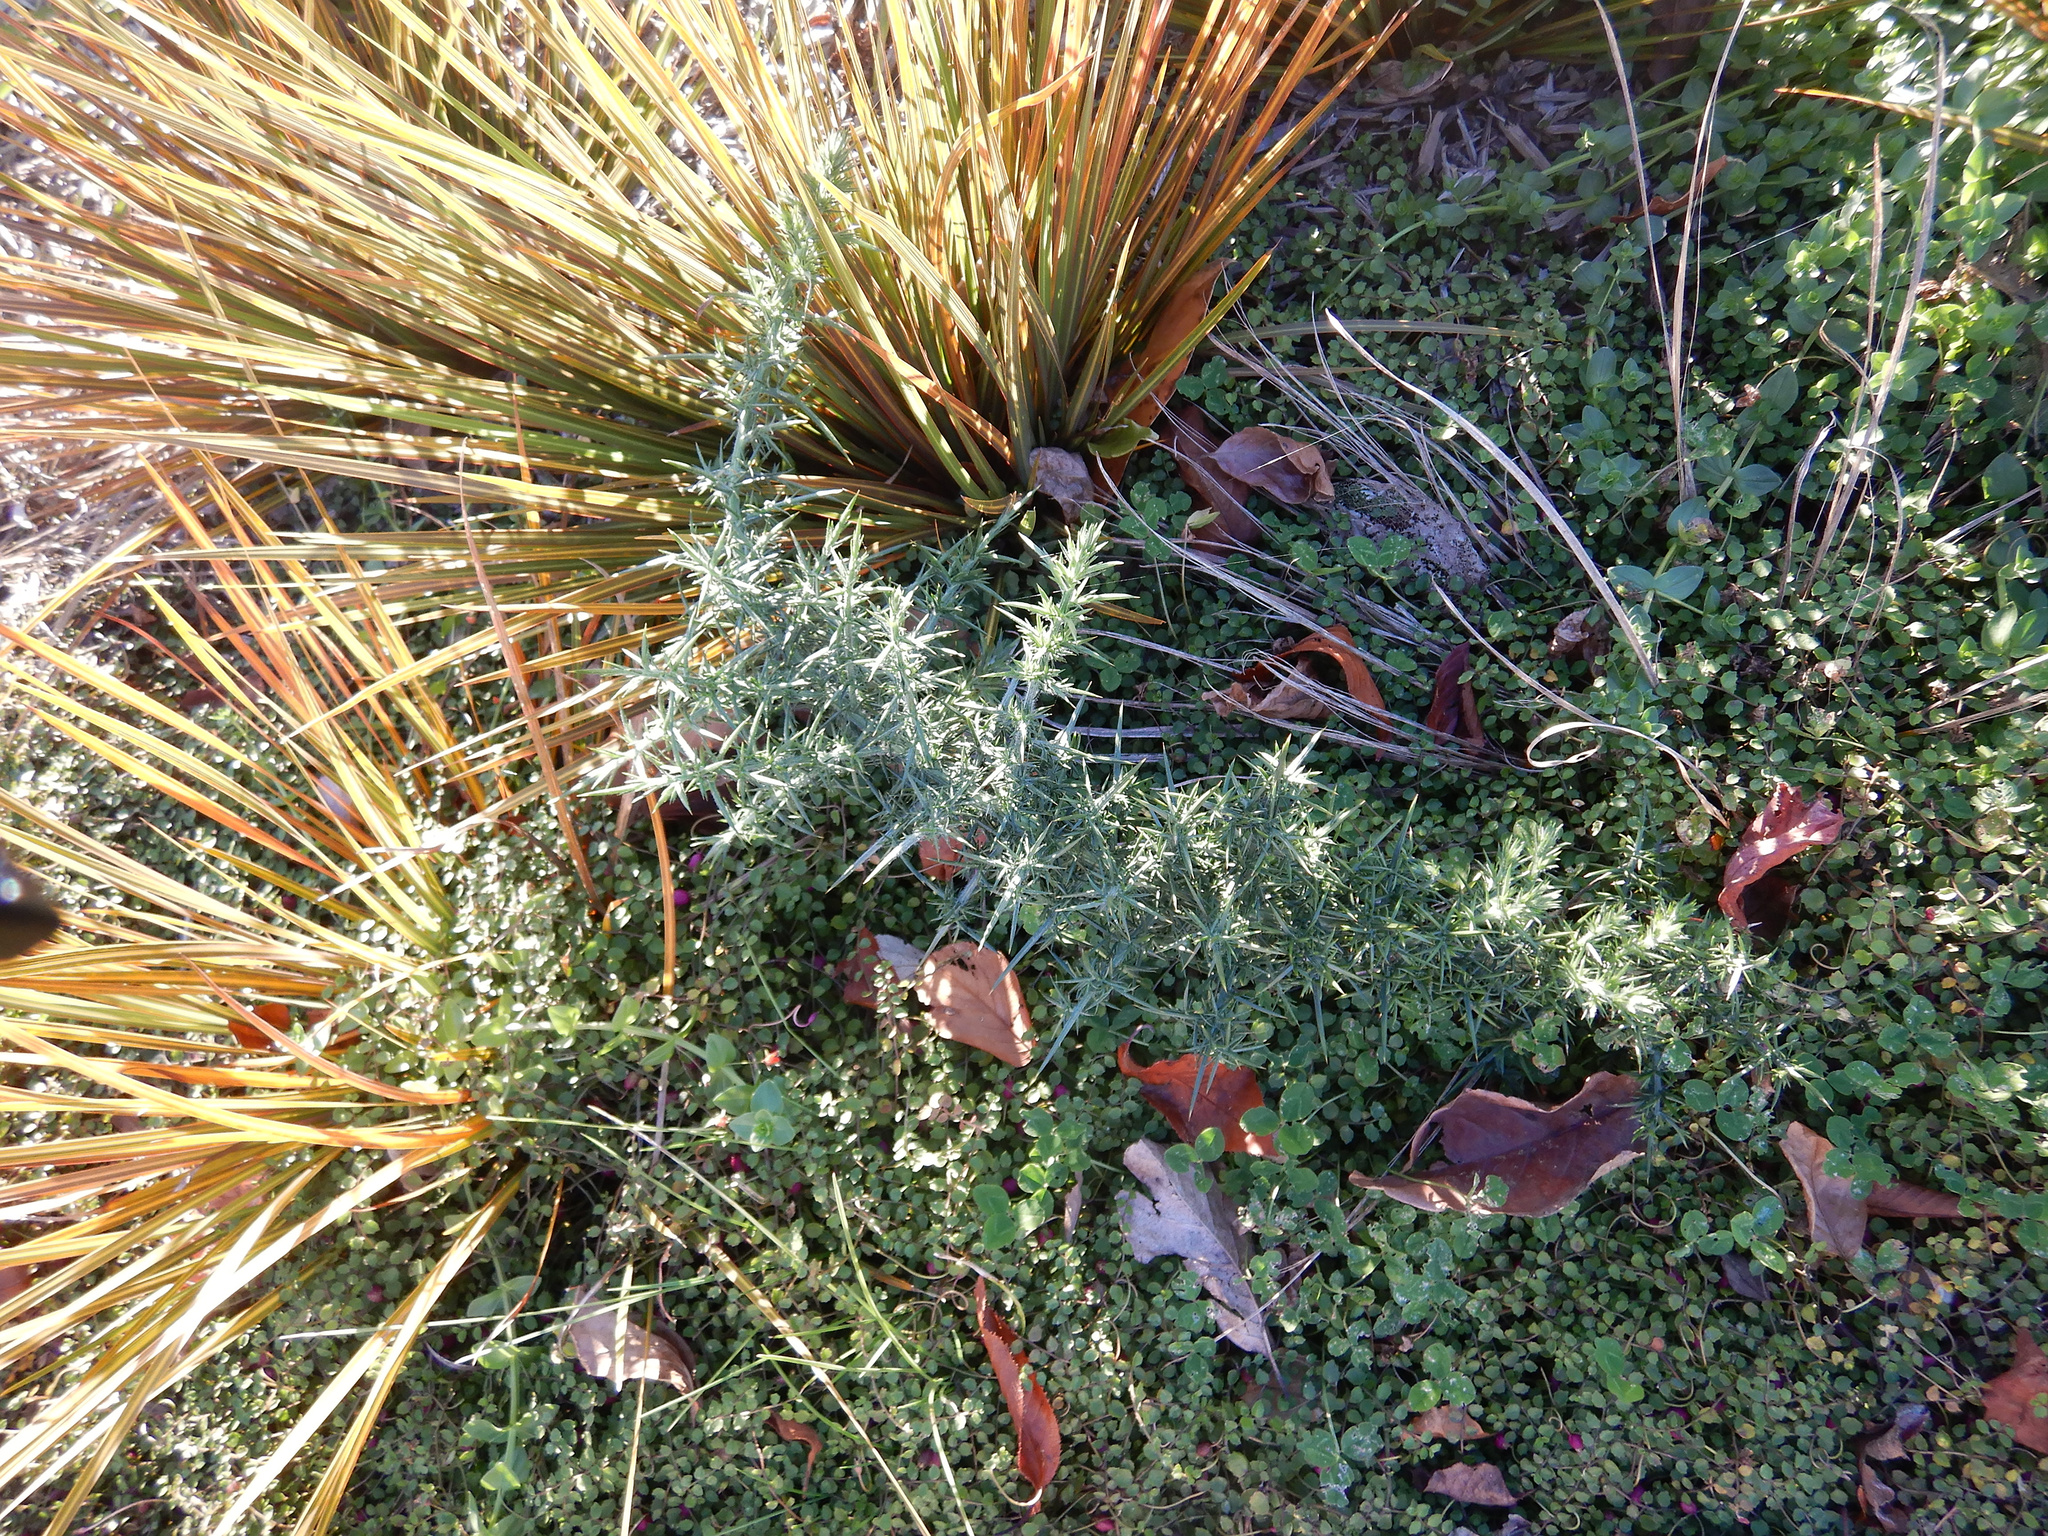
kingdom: Plantae
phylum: Tracheophyta
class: Magnoliopsida
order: Fabales
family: Fabaceae
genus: Ulex
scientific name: Ulex europaeus
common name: Common gorse
